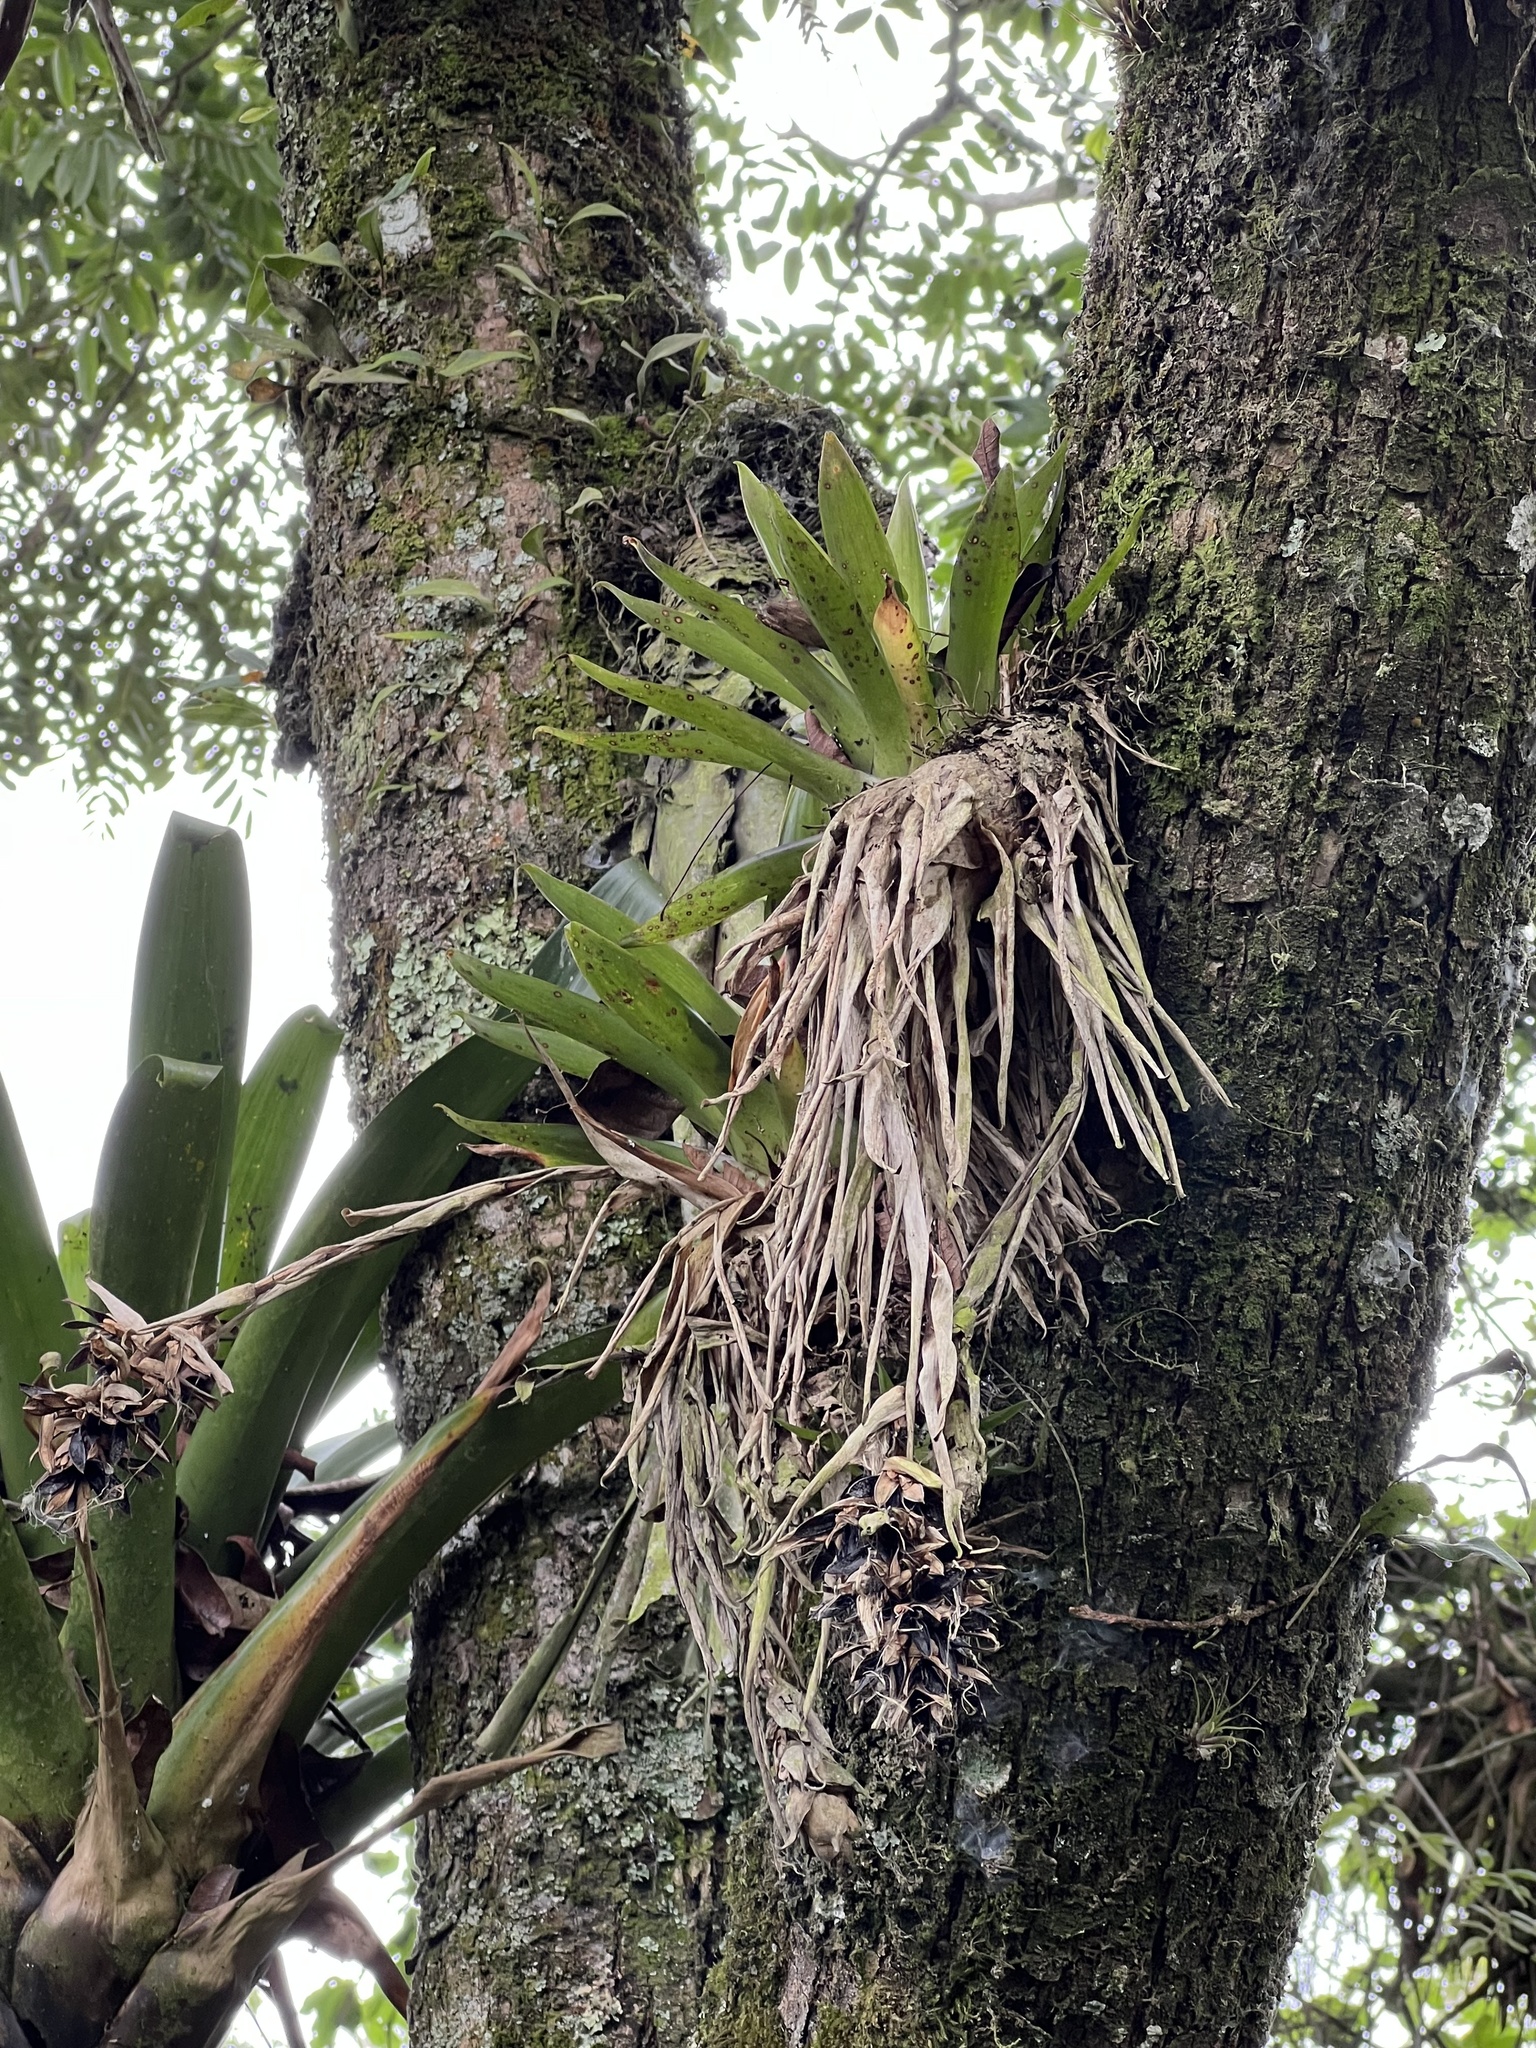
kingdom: Plantae
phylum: Tracheophyta
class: Liliopsida
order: Poales
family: Bromeliaceae
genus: Tillandsia
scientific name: Tillandsia biflora
